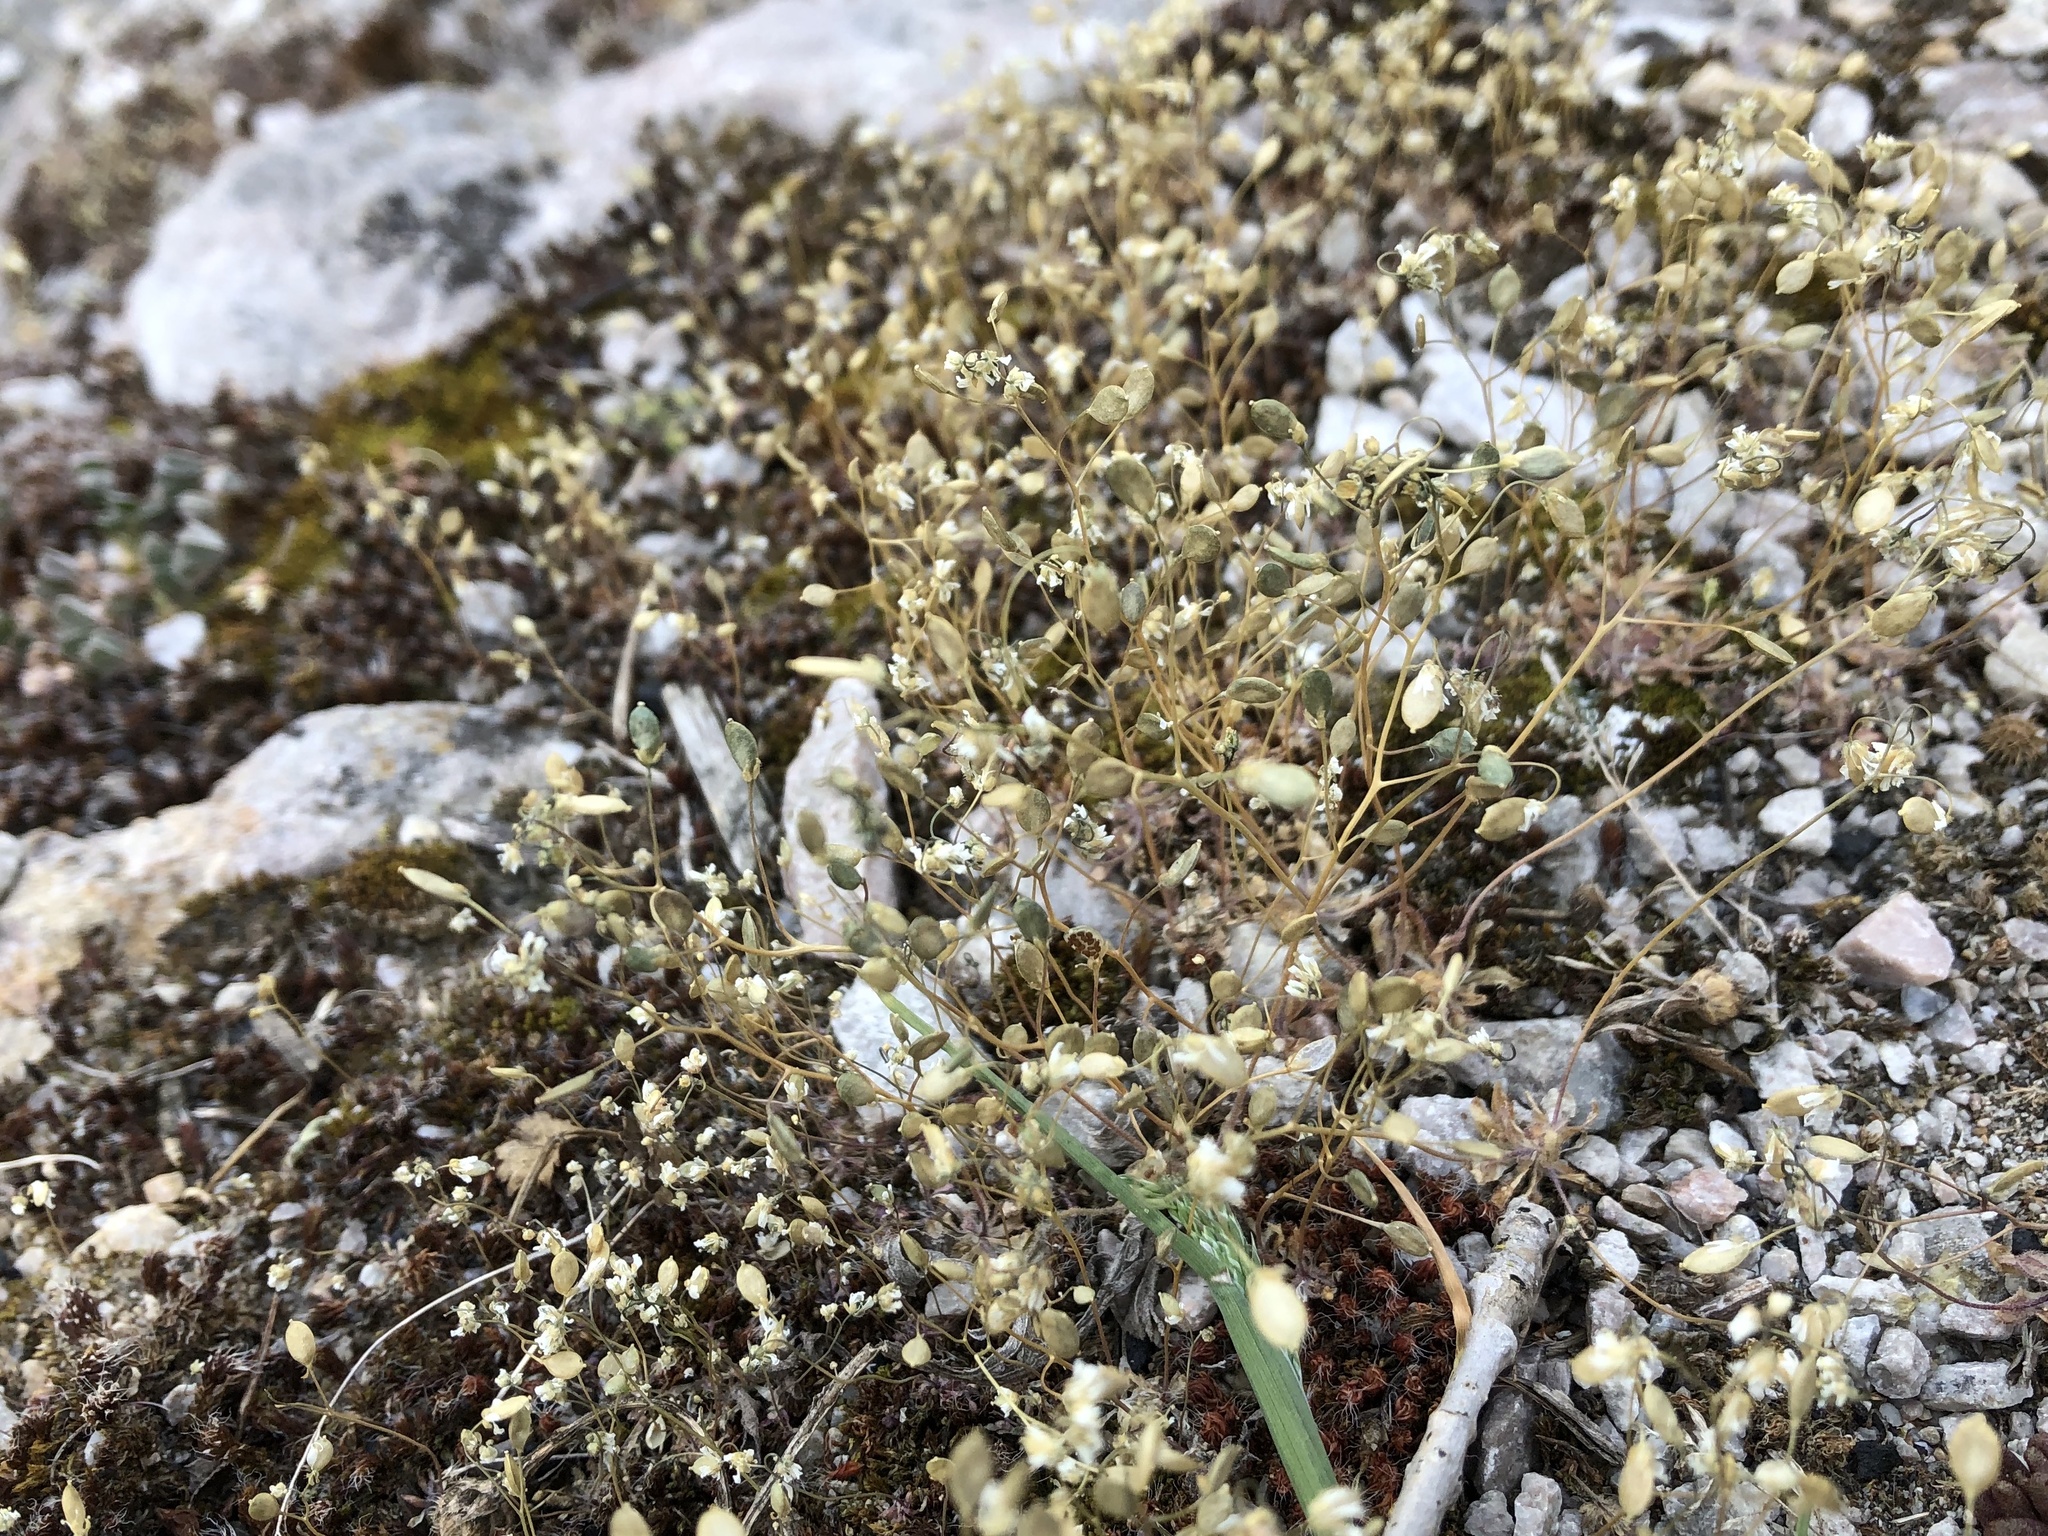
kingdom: Plantae
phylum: Tracheophyta
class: Magnoliopsida
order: Brassicales
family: Brassicaceae
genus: Draba
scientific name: Draba verna
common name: Spring draba
